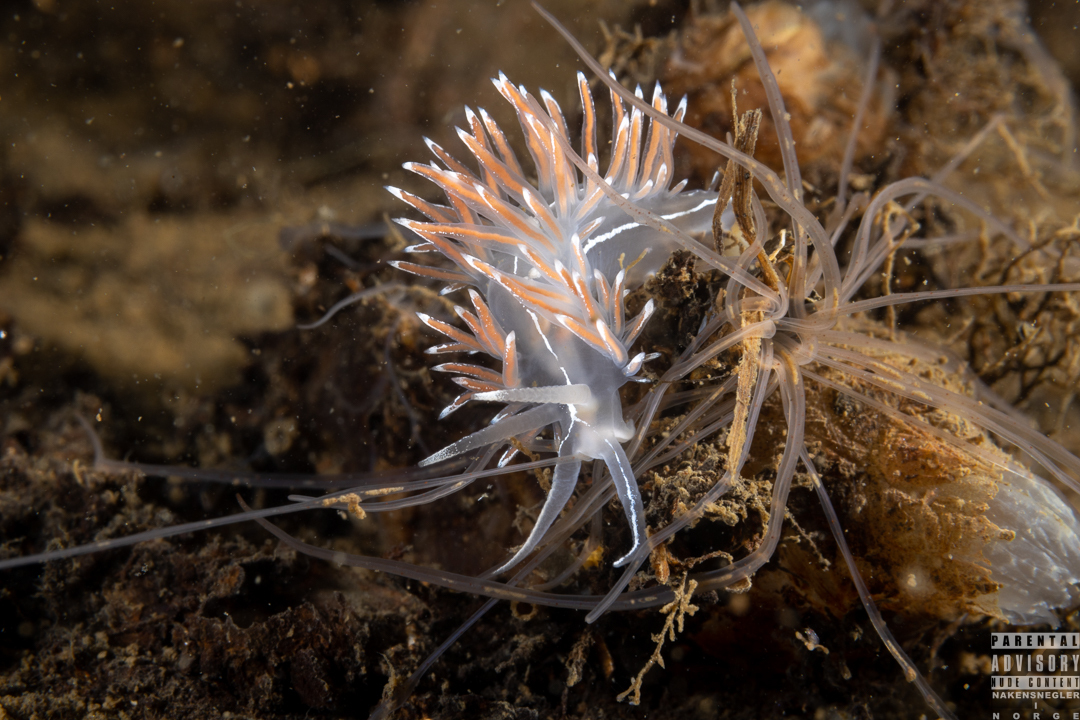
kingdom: Animalia
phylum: Mollusca
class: Gastropoda
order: Nudibranchia
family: Coryphellidae
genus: Coryphella
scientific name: Coryphella lineata
